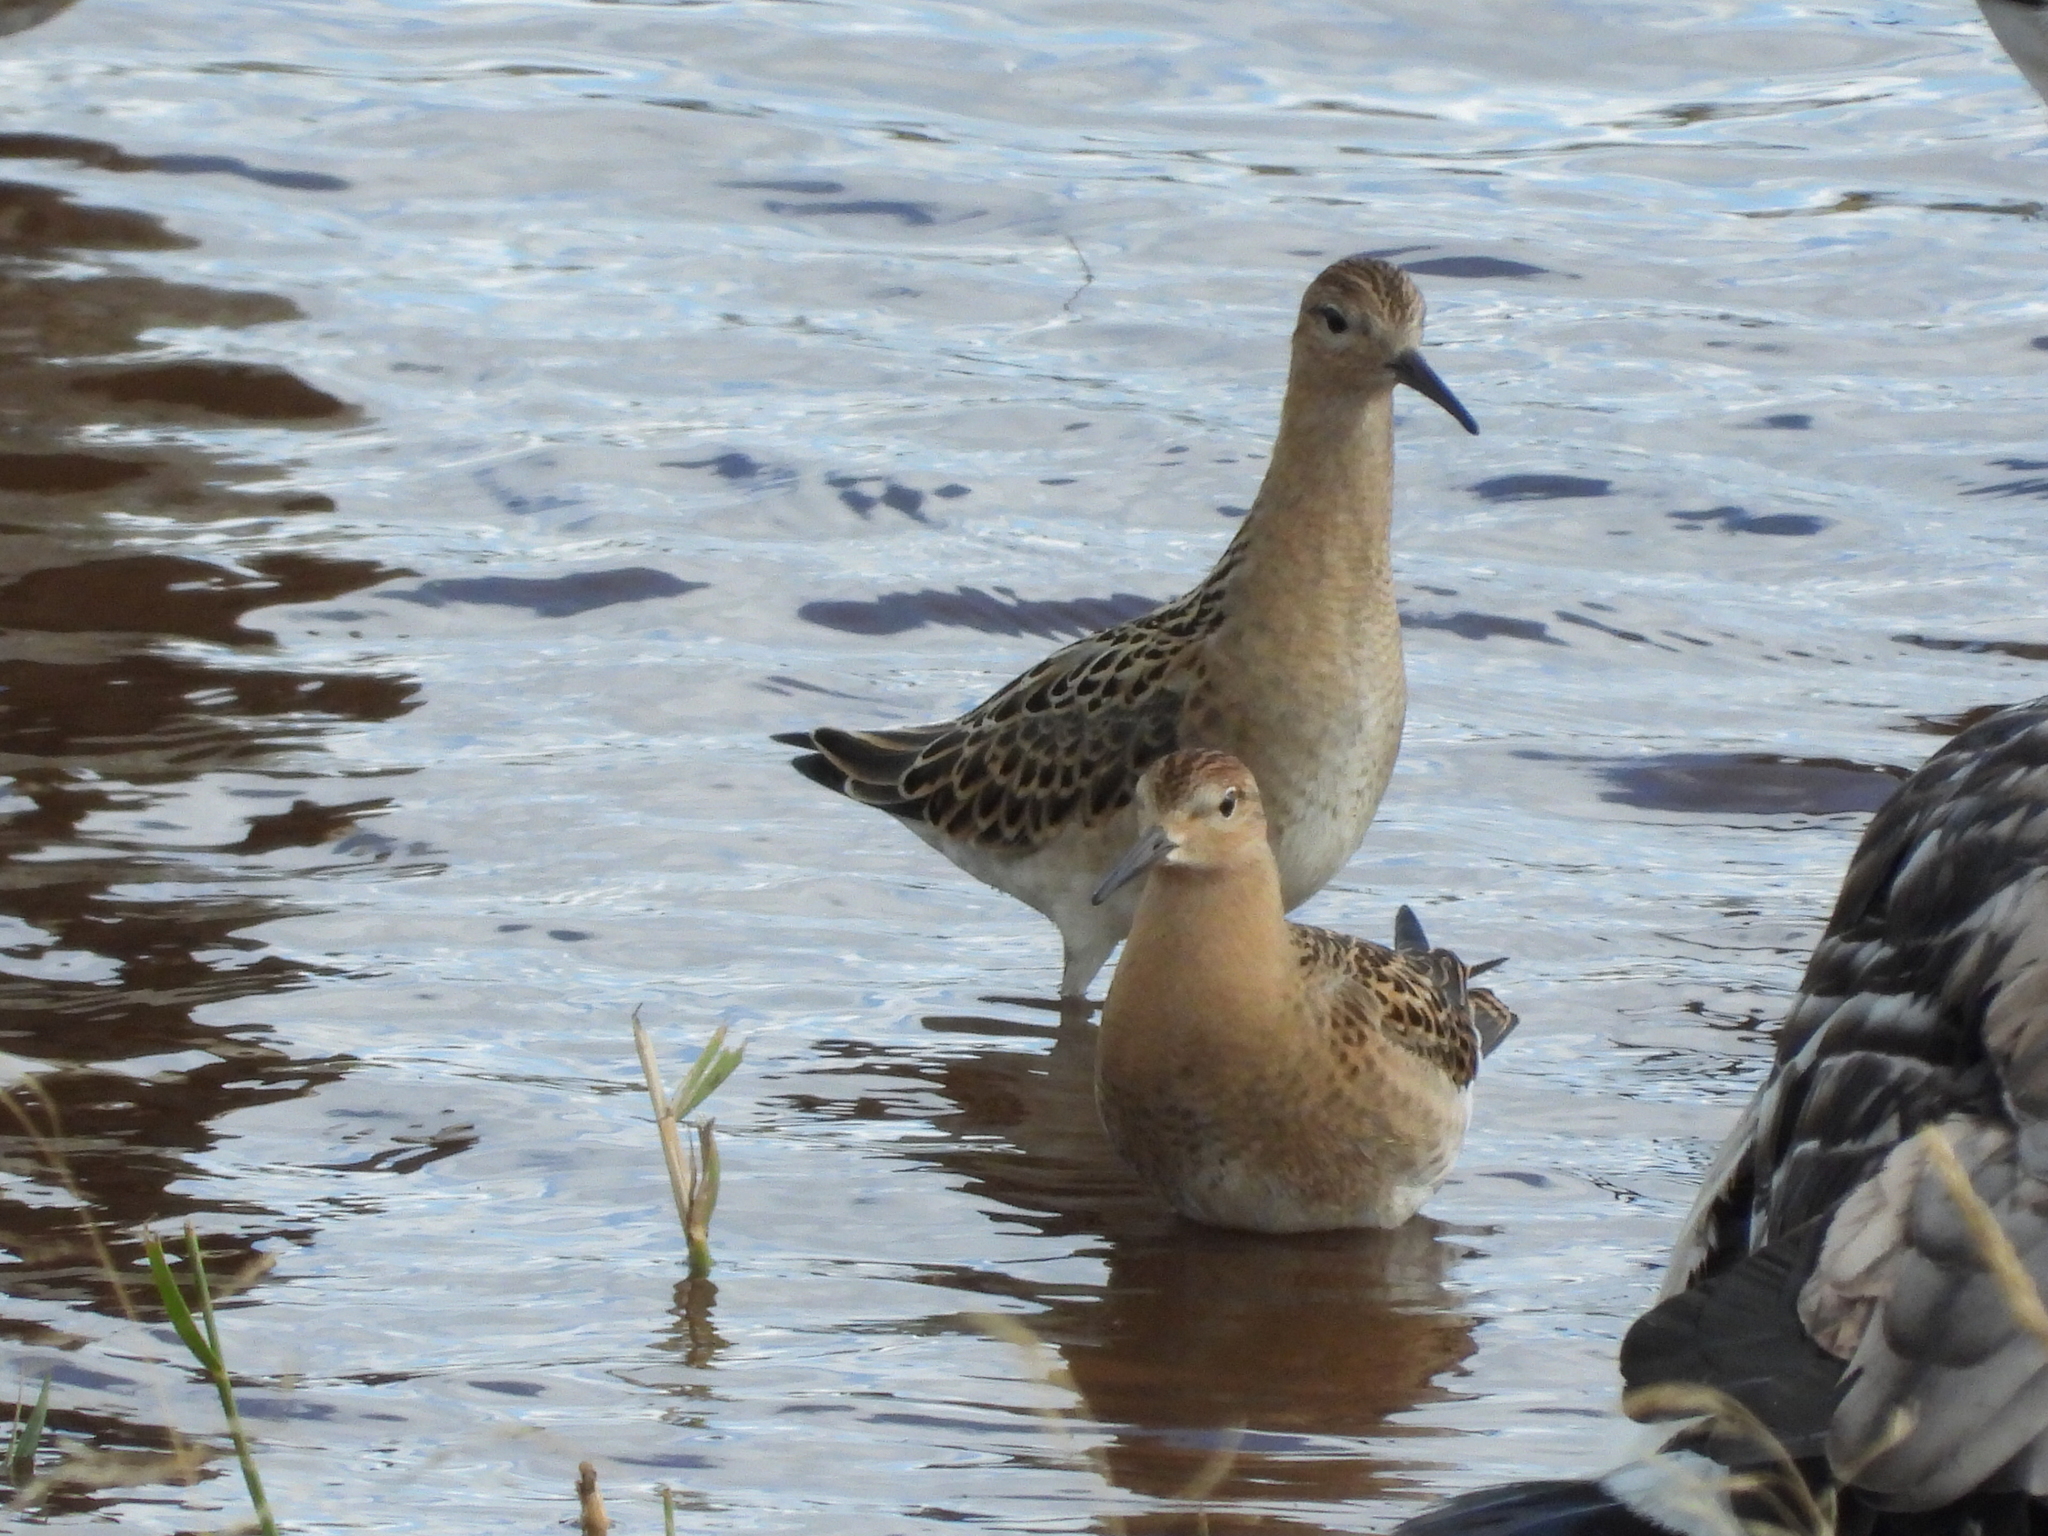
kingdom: Animalia
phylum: Chordata
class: Aves
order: Charadriiformes
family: Scolopacidae
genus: Calidris
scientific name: Calidris pugnax
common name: Ruff
